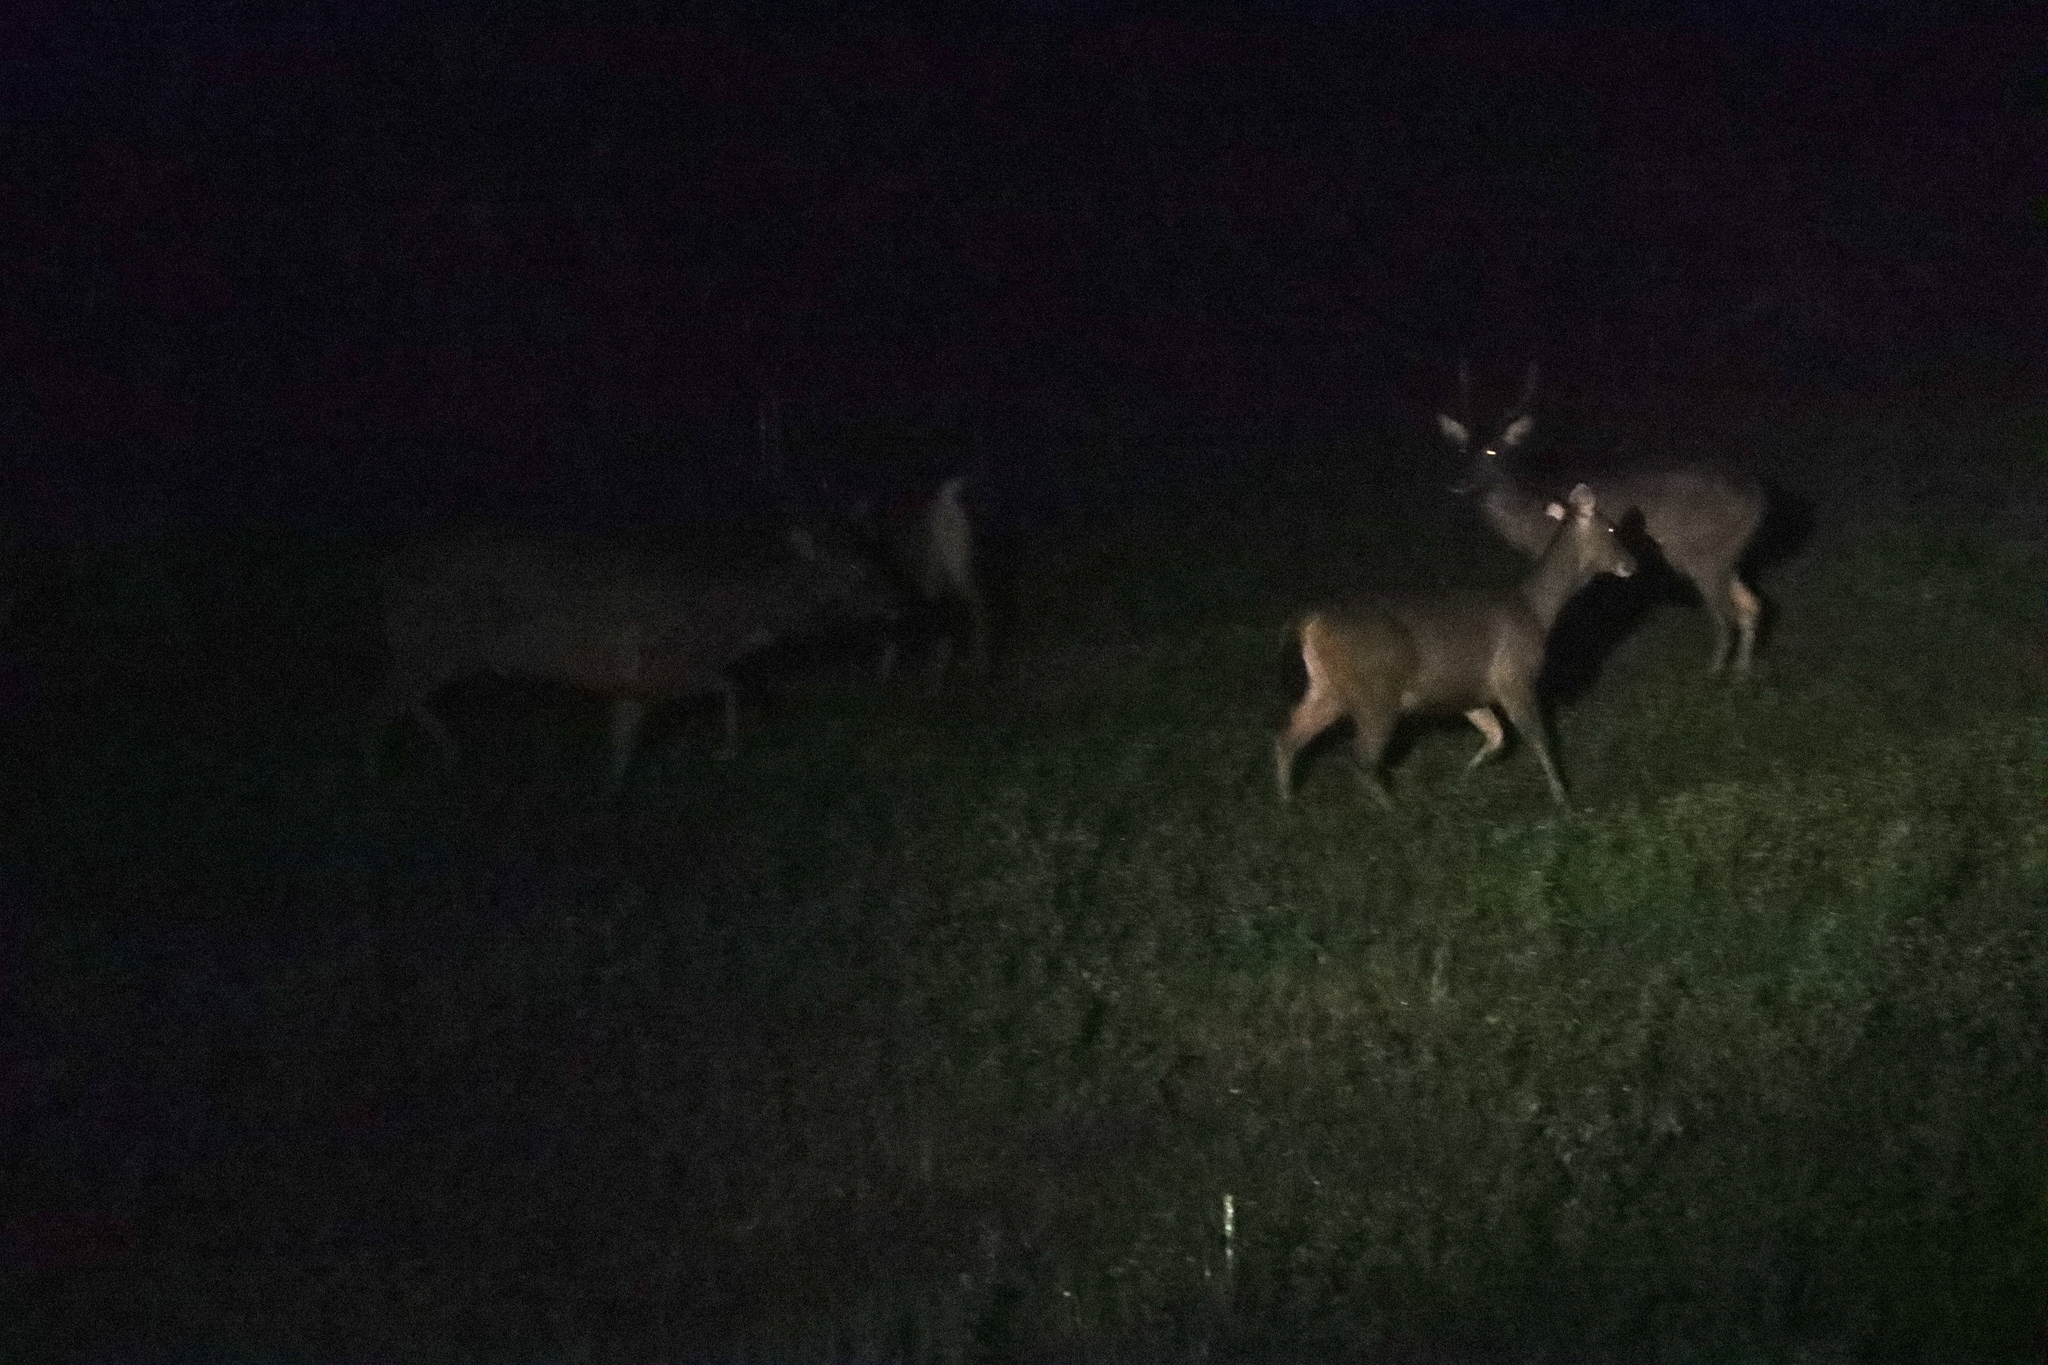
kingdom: Animalia
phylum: Chordata
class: Mammalia
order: Artiodactyla
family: Cervidae
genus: Rusa
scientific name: Rusa unicolor
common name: Sambar
